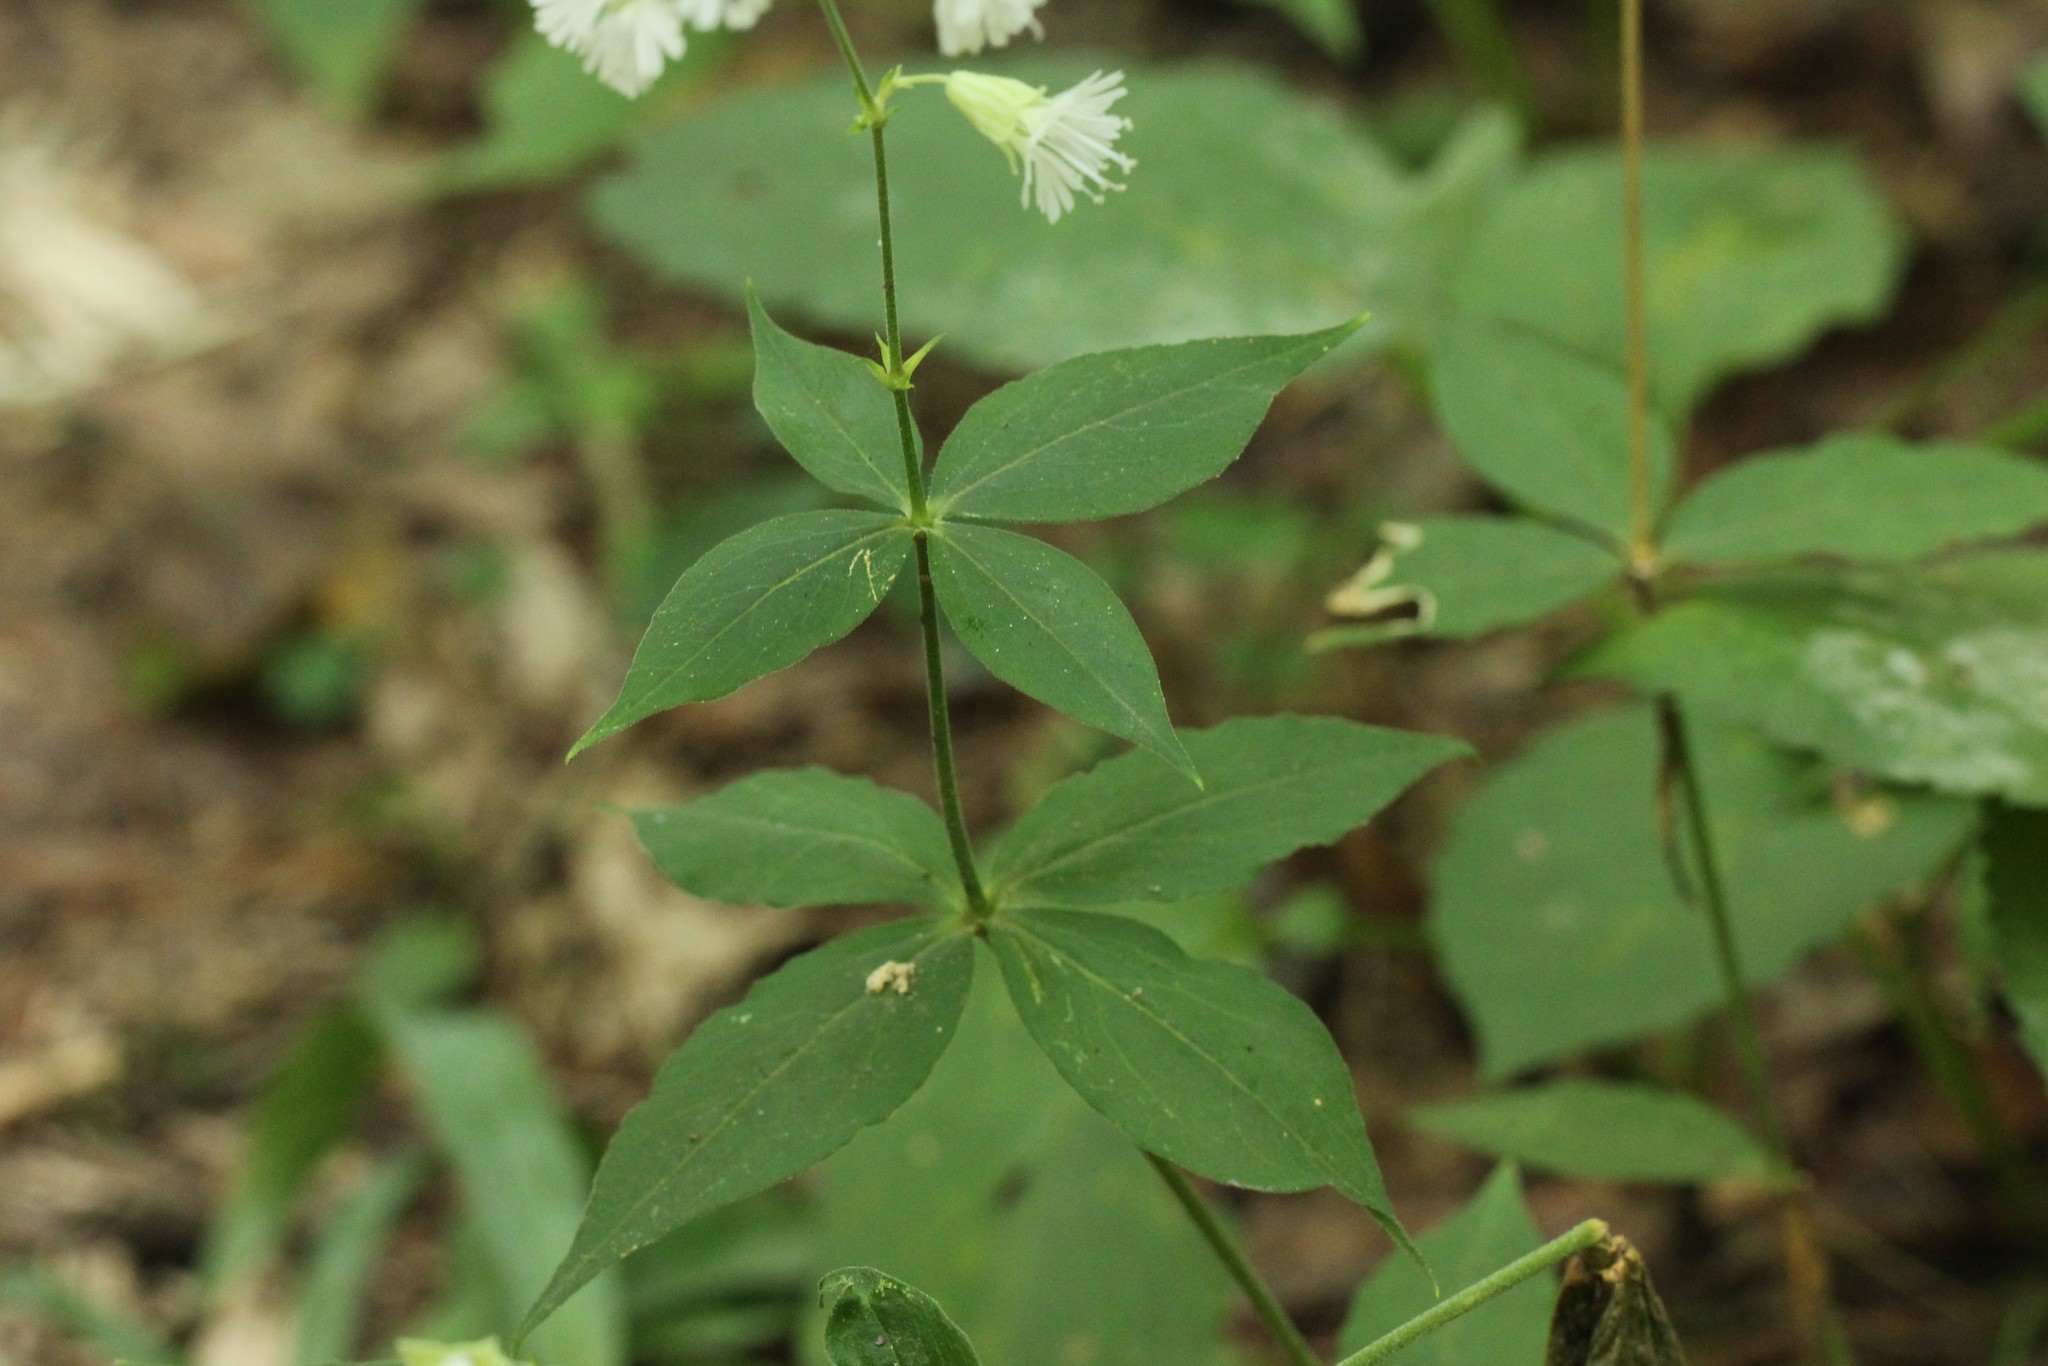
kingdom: Plantae
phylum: Tracheophyta
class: Magnoliopsida
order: Caryophyllales
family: Caryophyllaceae
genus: Silene
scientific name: Silene stellata
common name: Starry campion
